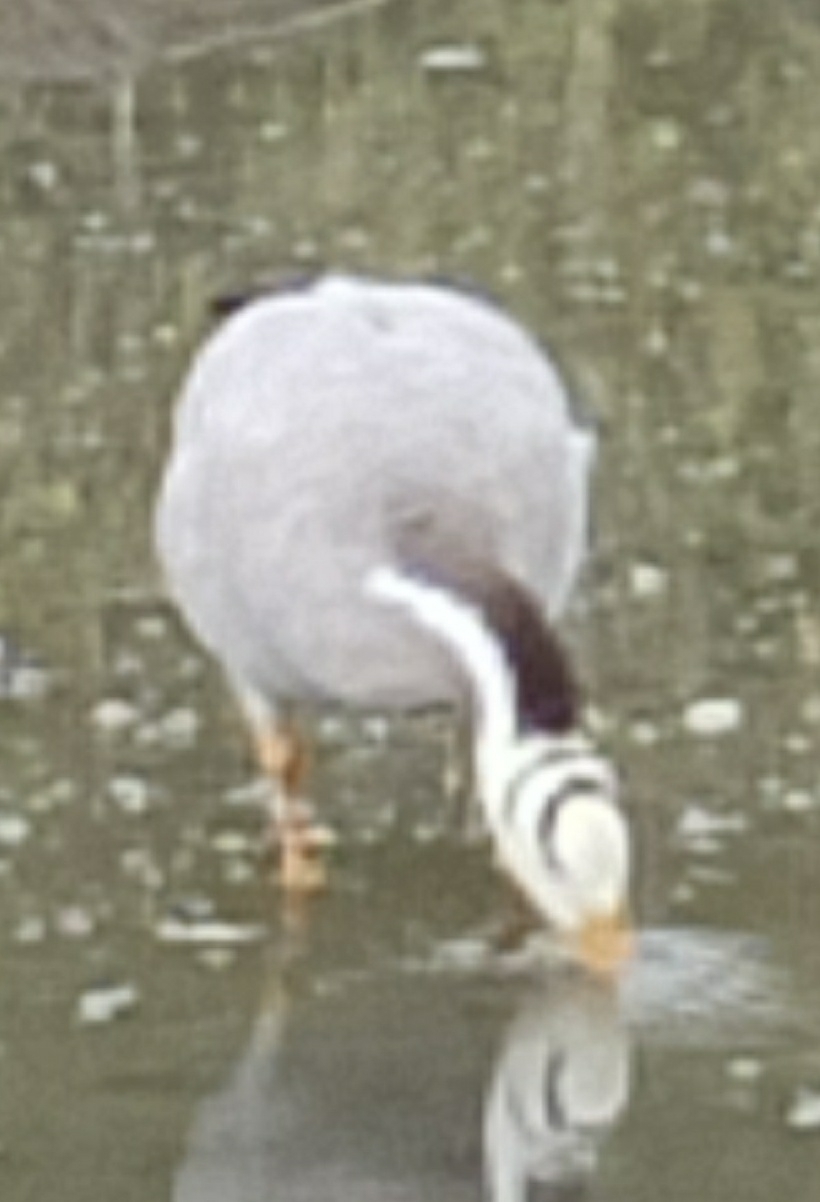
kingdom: Animalia
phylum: Chordata
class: Aves
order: Anseriformes
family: Anatidae
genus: Anser
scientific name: Anser indicus
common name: Bar-headed goose
